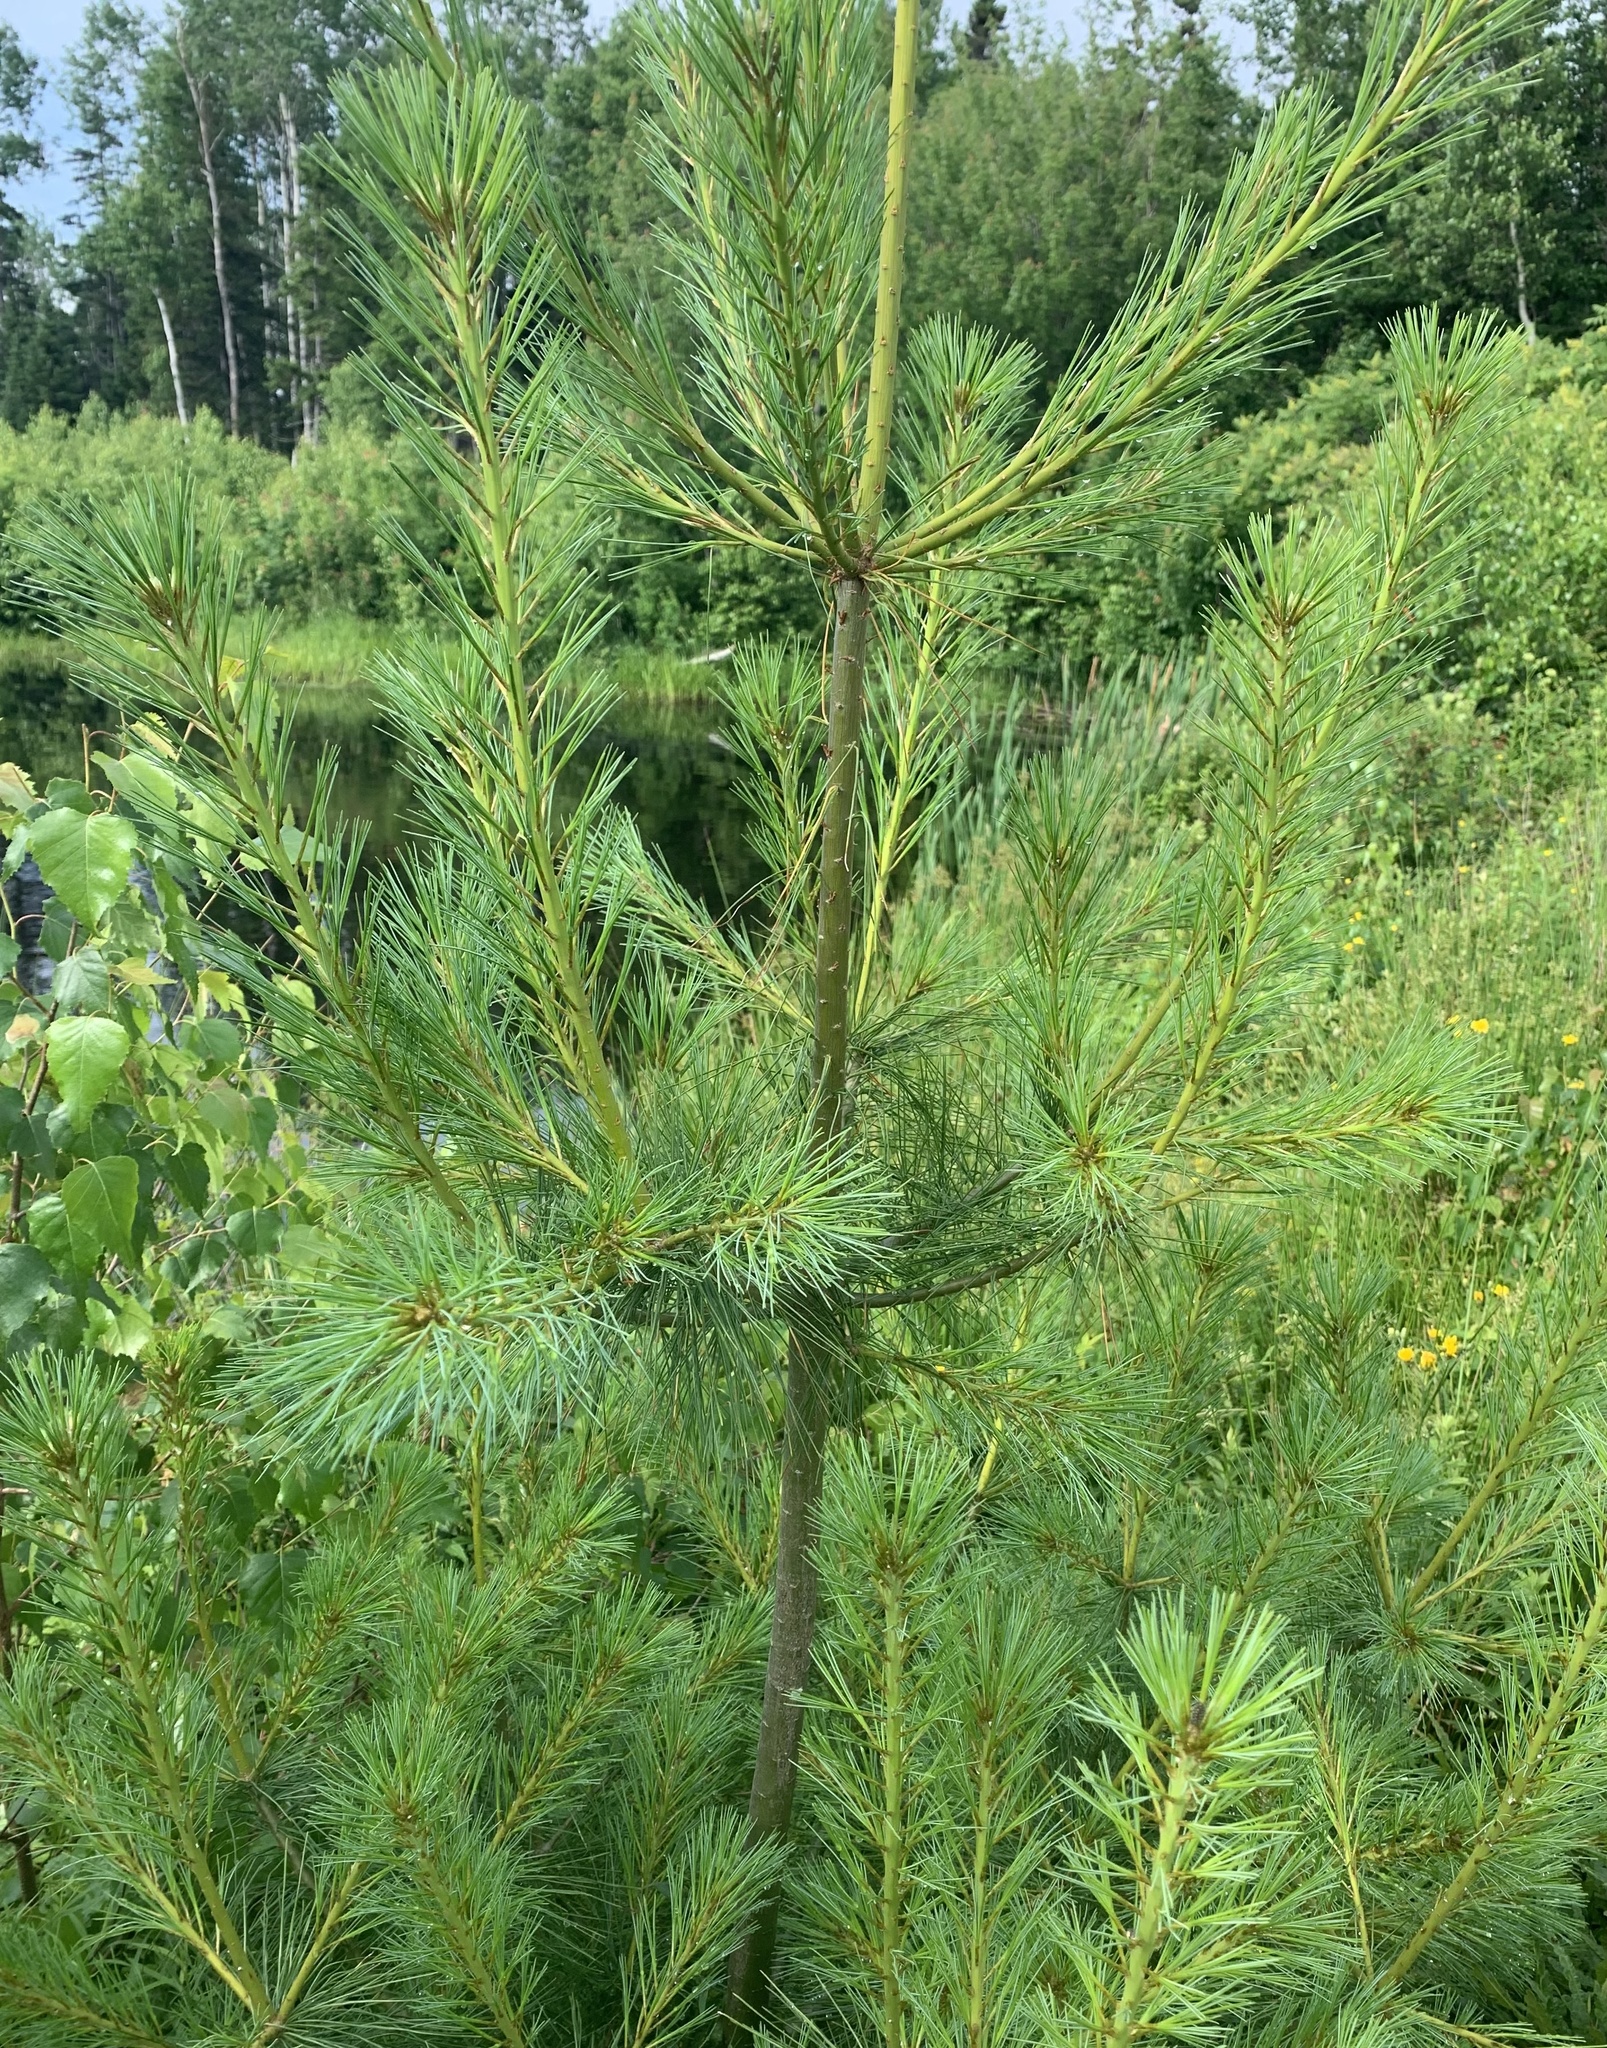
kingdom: Plantae
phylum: Tracheophyta
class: Pinopsida
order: Pinales
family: Pinaceae
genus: Pinus
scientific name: Pinus strobus
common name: Weymouth pine
